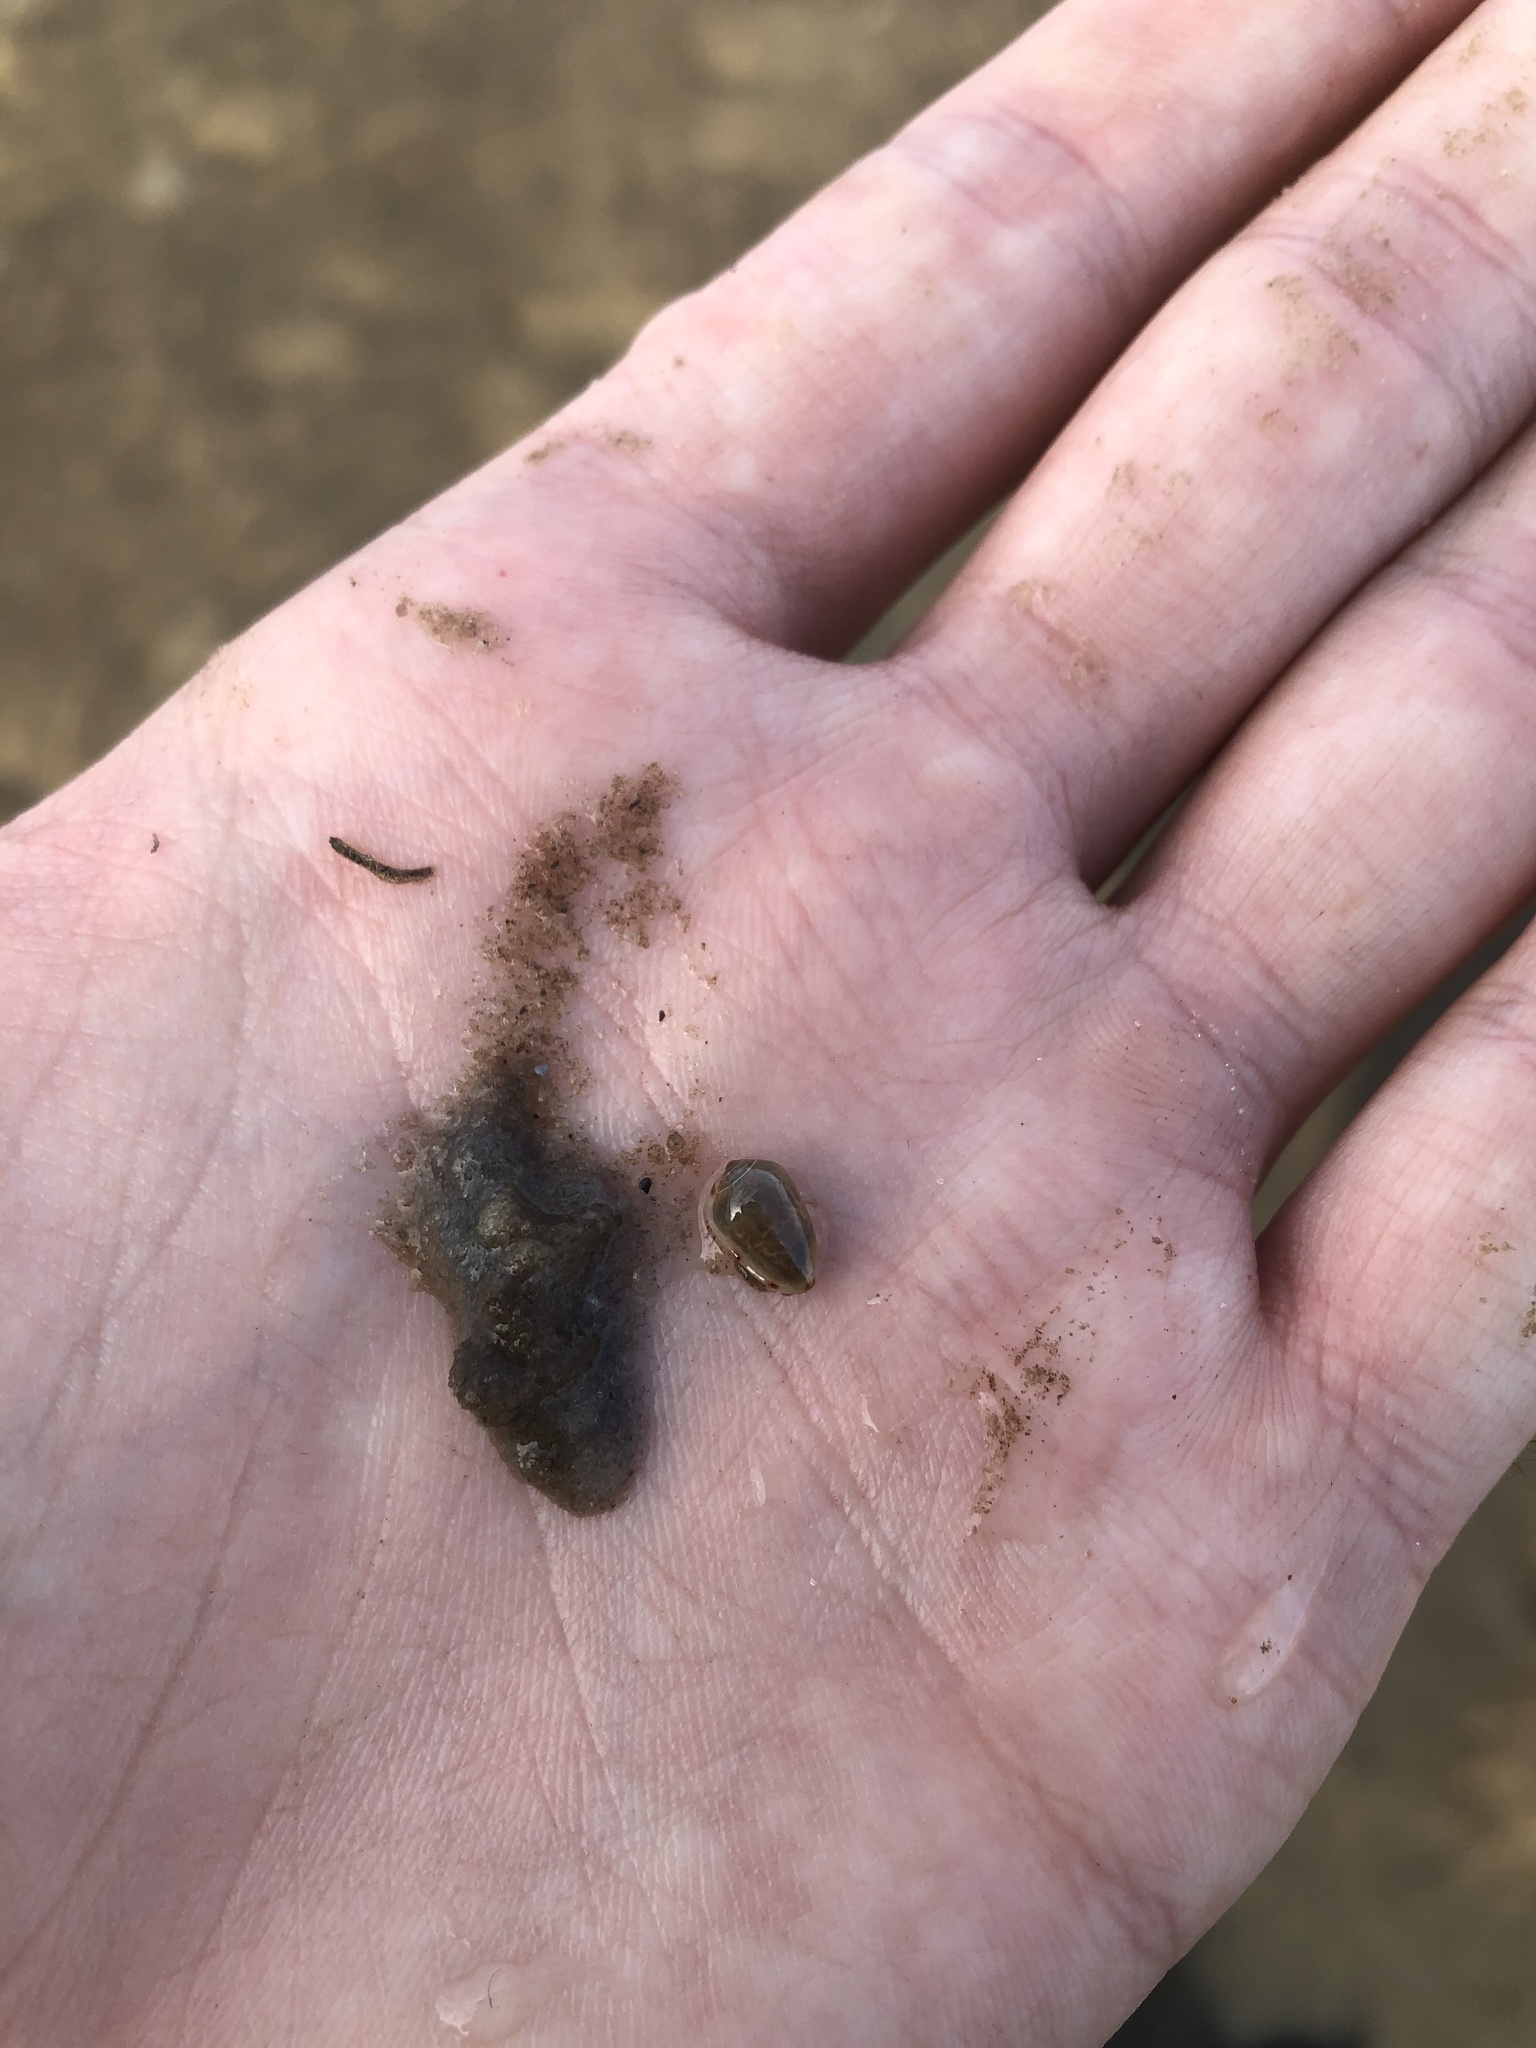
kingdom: Animalia
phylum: Mollusca
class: Gastropoda
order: Neogastropoda
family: Marginellidae
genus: Prunum
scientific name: Prunum apicinum
